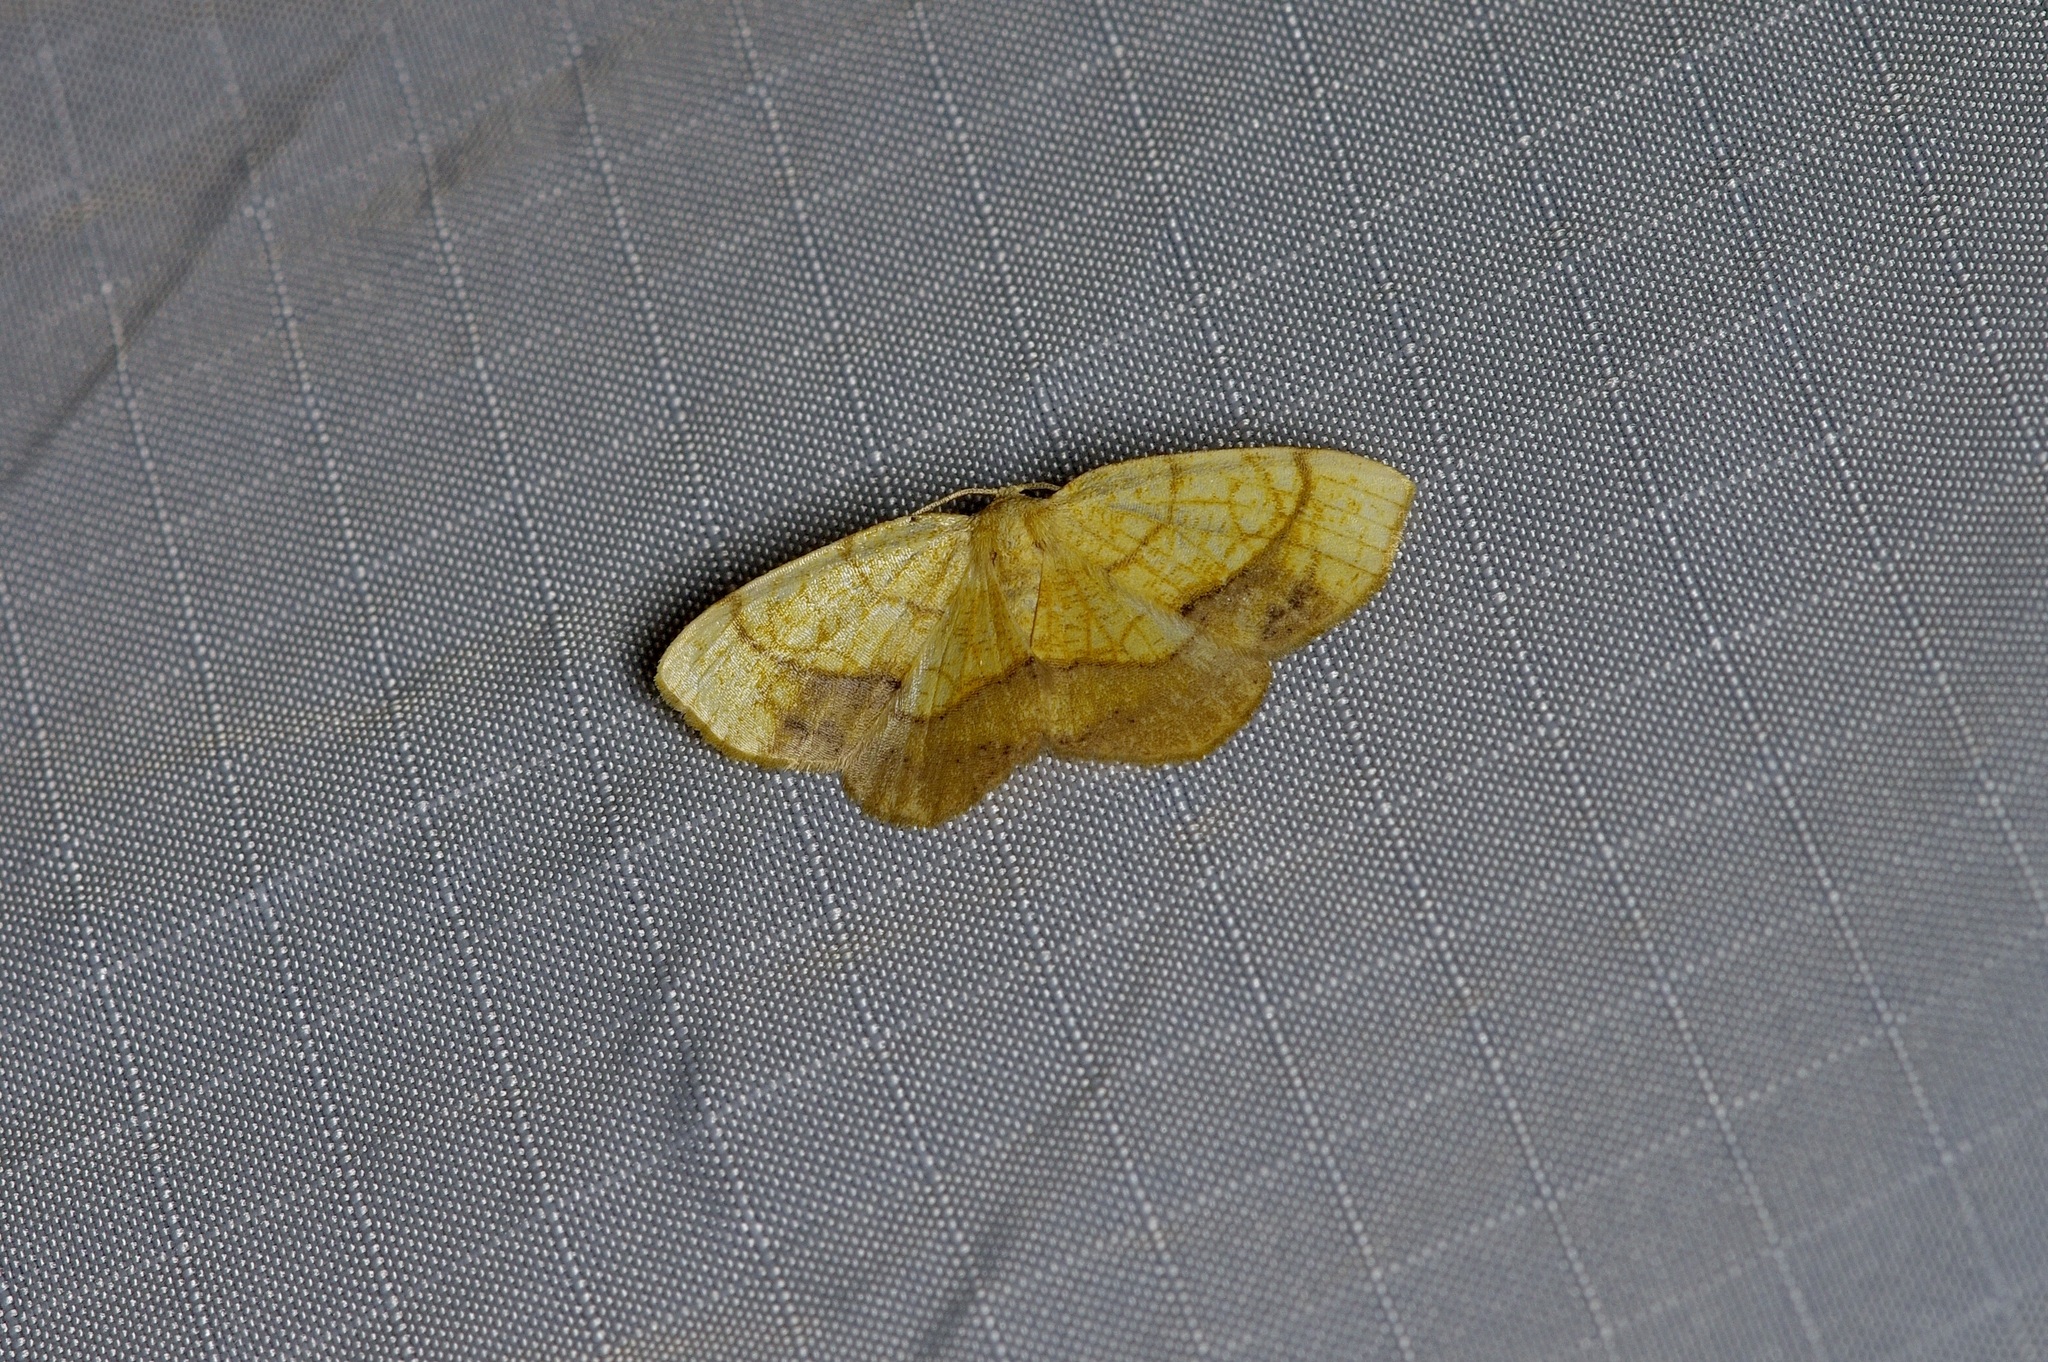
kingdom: Animalia
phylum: Arthropoda
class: Insecta
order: Lepidoptera
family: Geometridae
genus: Nematocampa
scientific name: Nematocampa resistaria
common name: Horned spanworm moth
